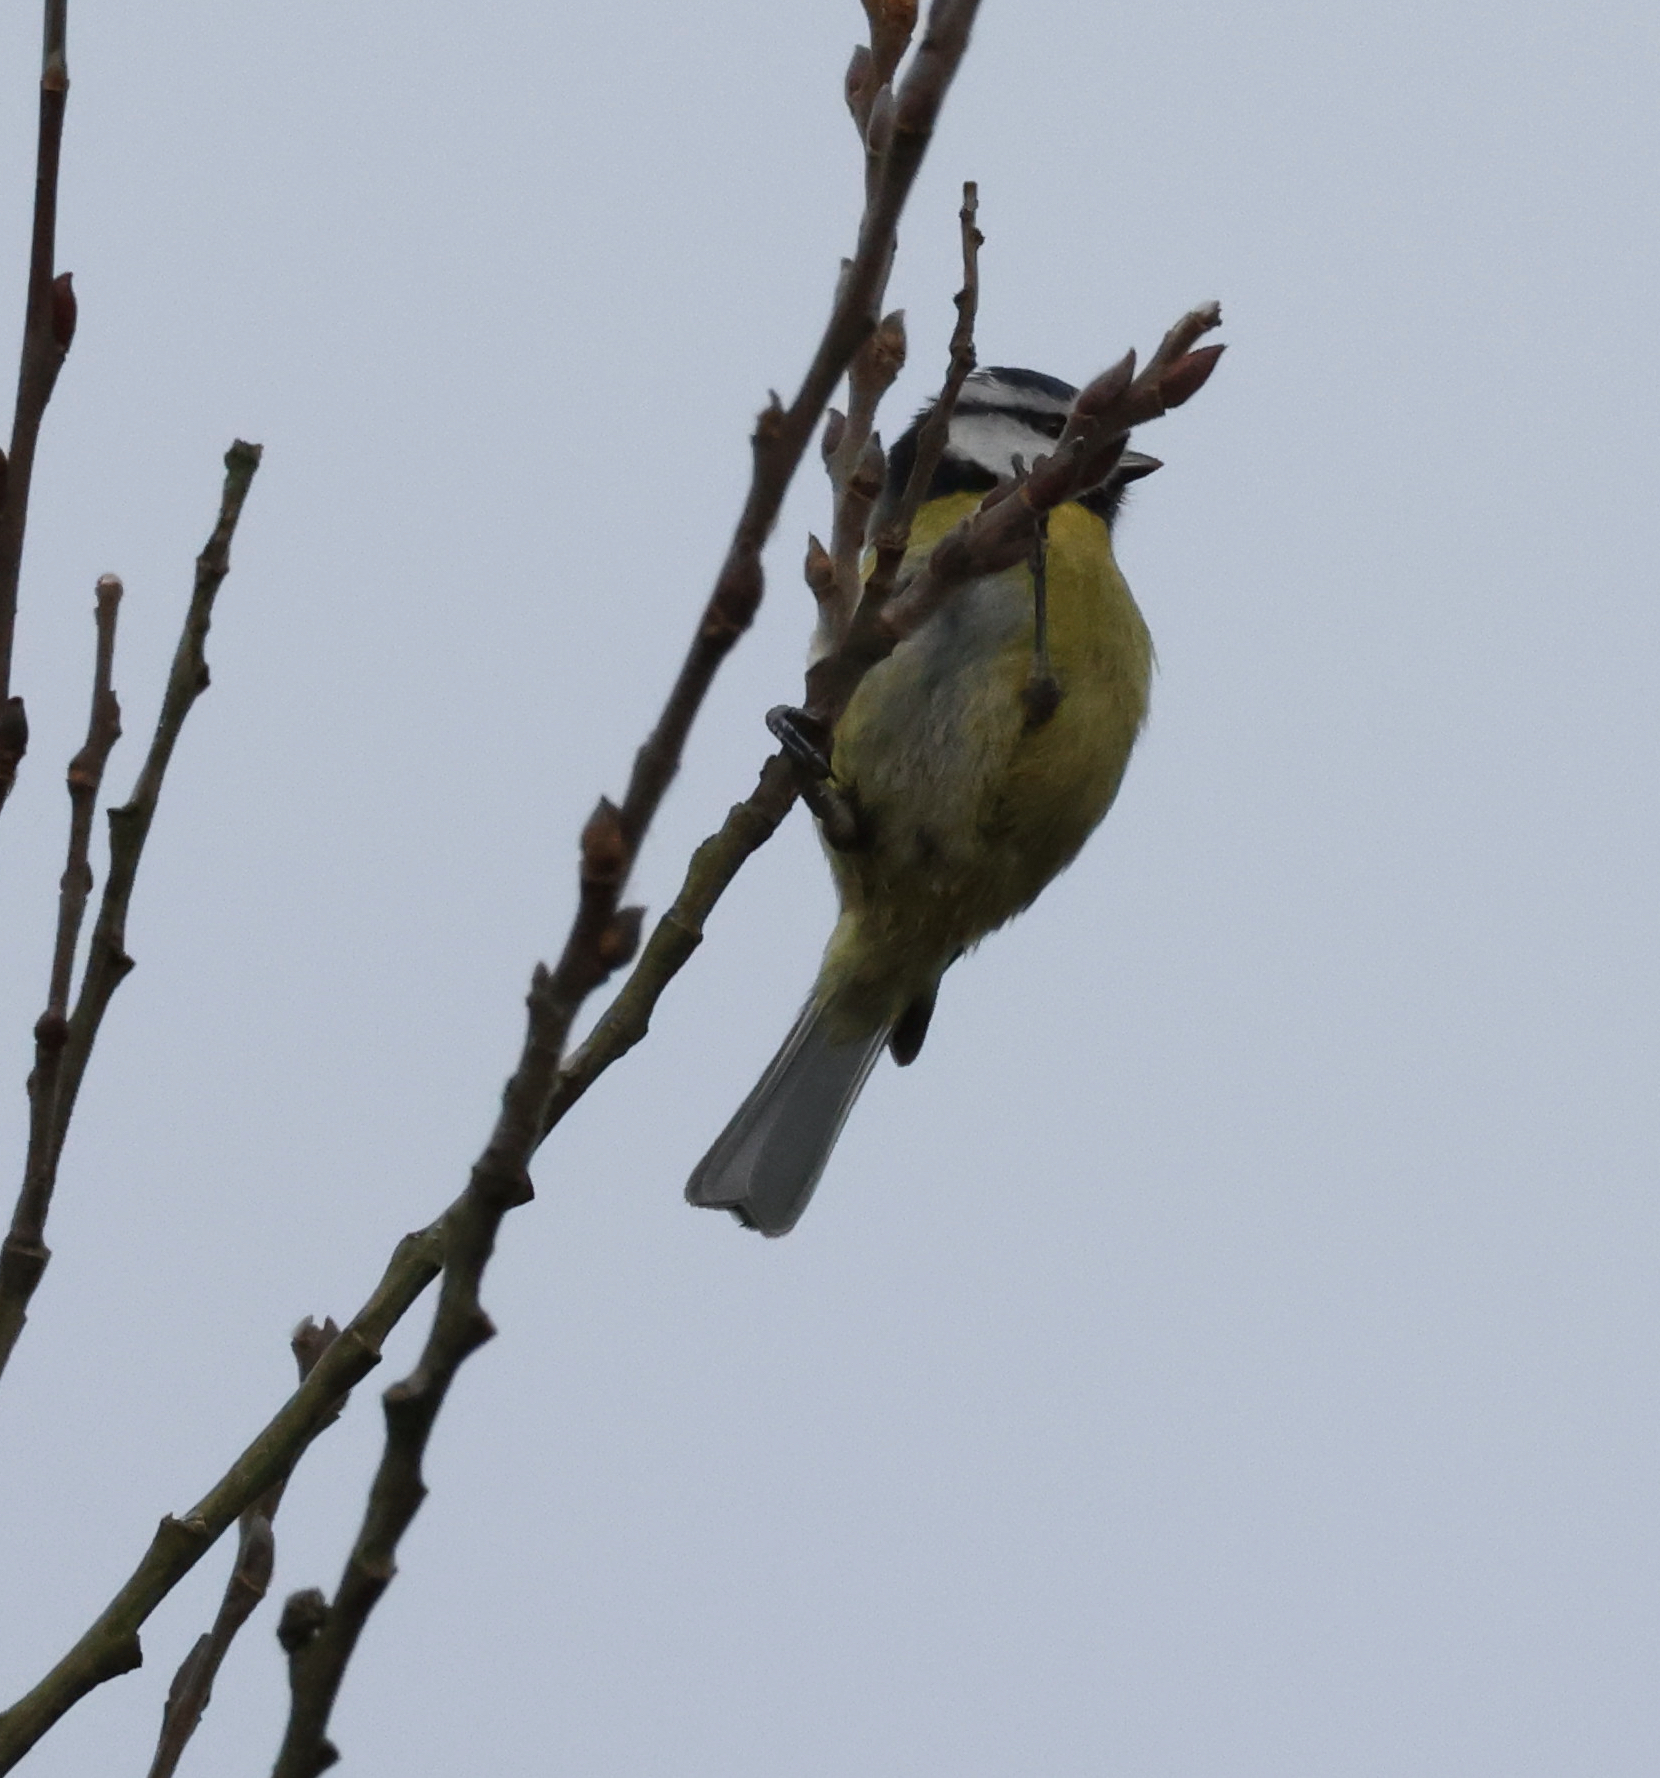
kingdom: Animalia
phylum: Chordata
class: Aves
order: Passeriformes
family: Paridae
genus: Cyanistes
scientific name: Cyanistes caeruleus
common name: Eurasian blue tit
